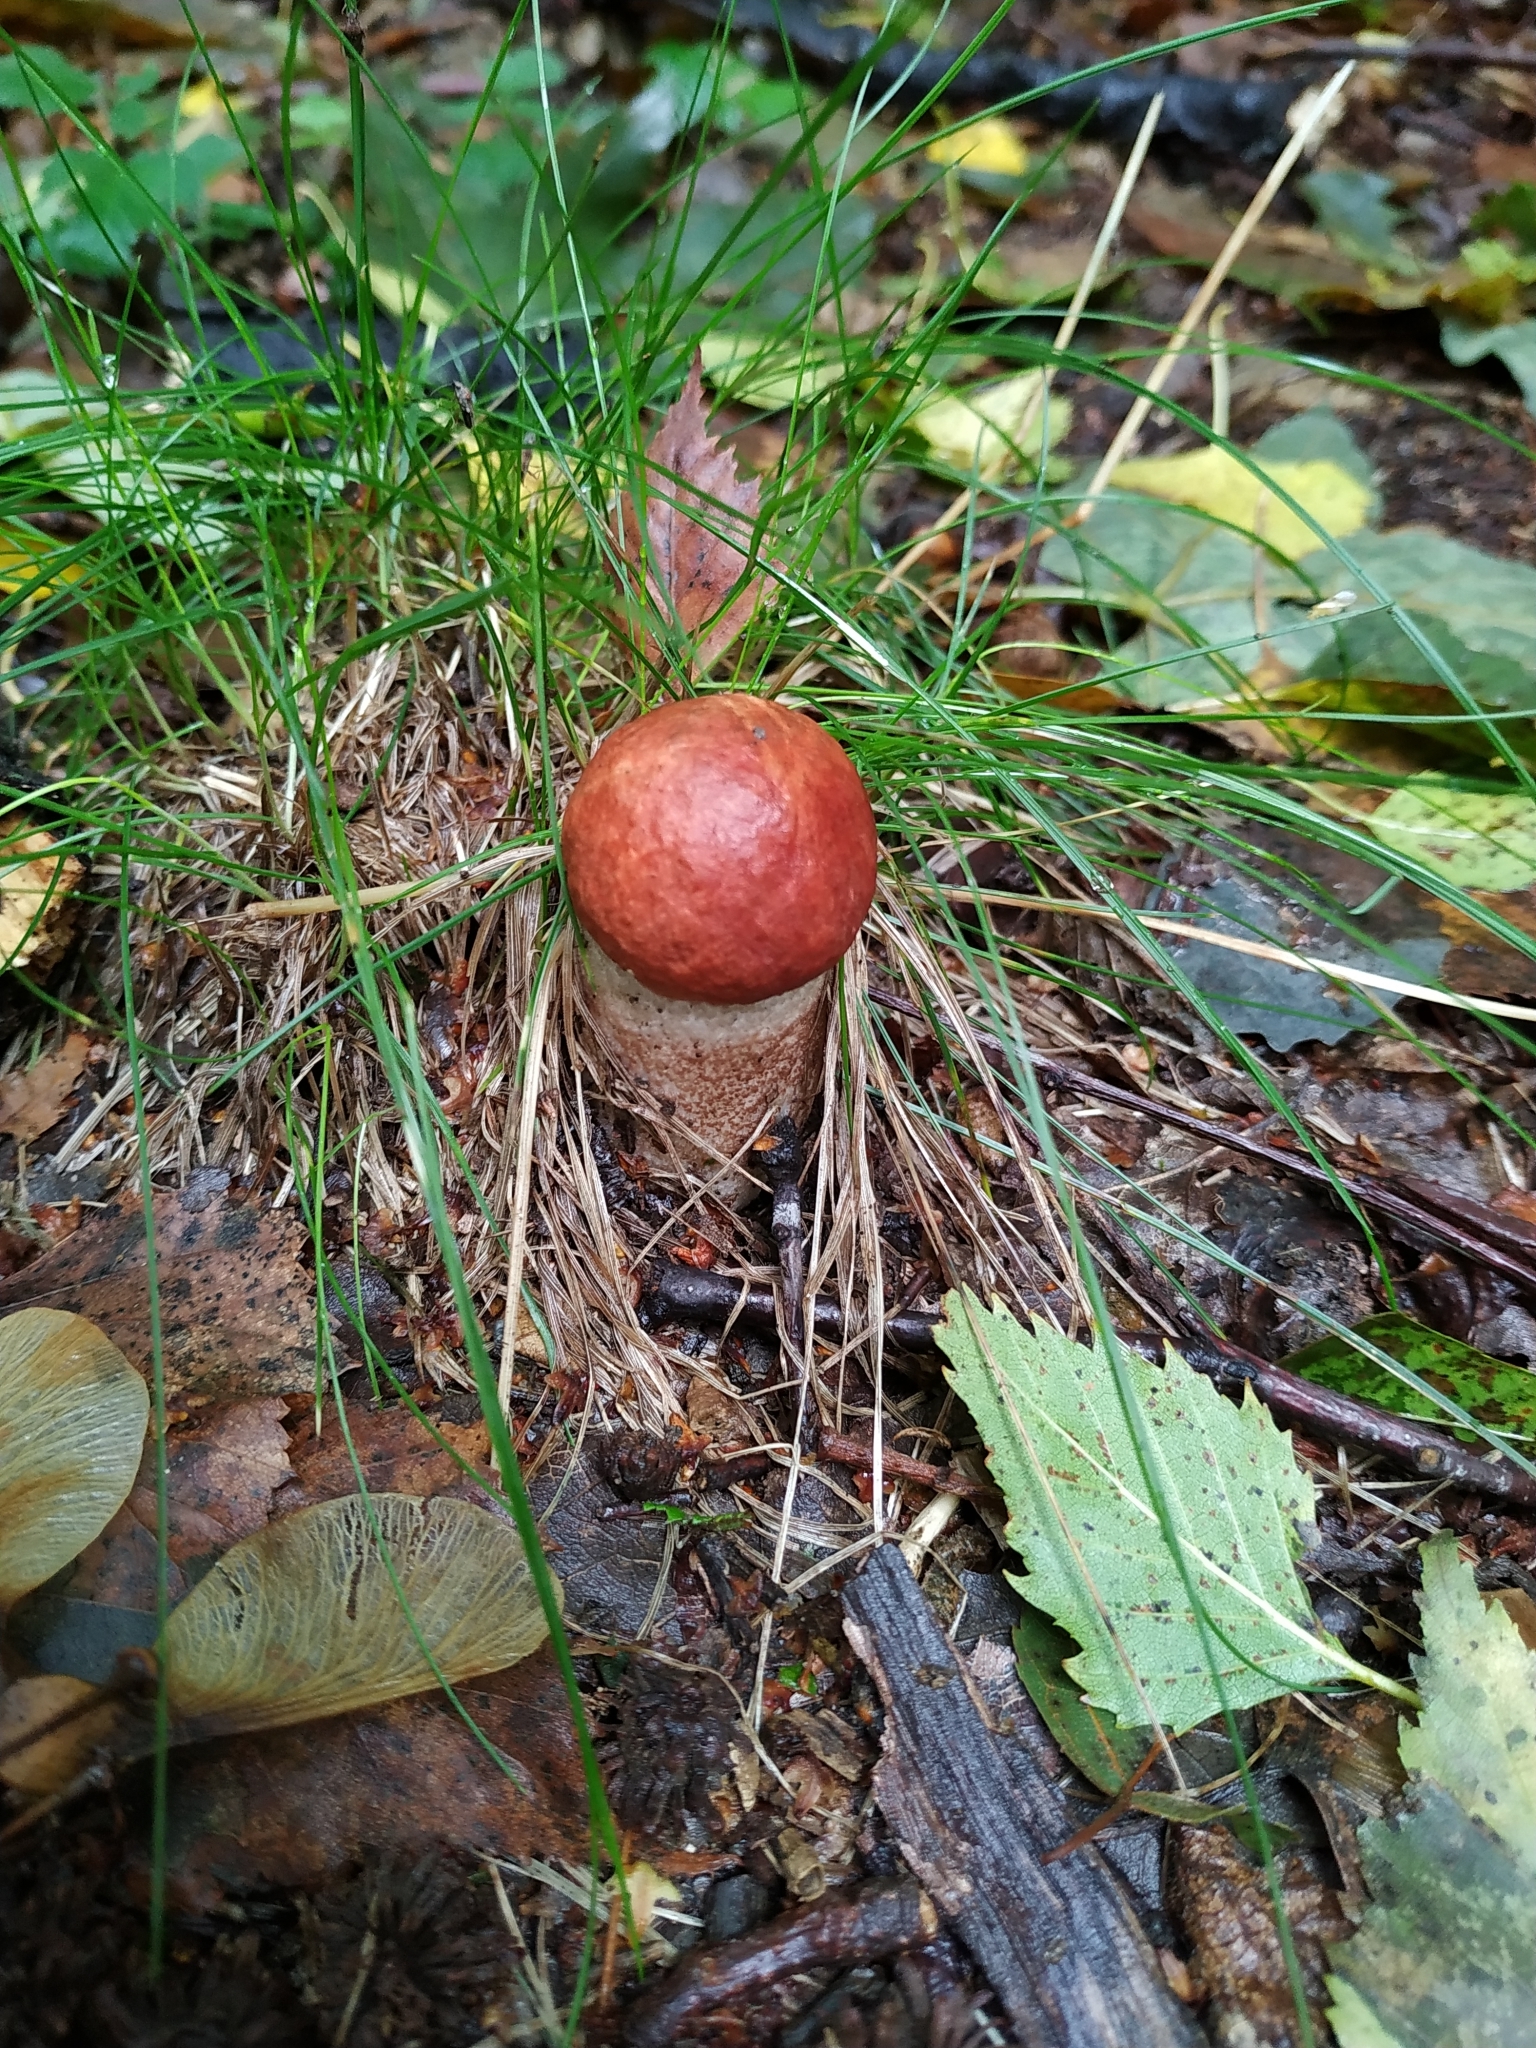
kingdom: Fungi
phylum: Basidiomycota
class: Agaricomycetes
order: Boletales
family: Boletaceae
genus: Leccinum
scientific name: Leccinum aurantiacum
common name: Orange bolete
